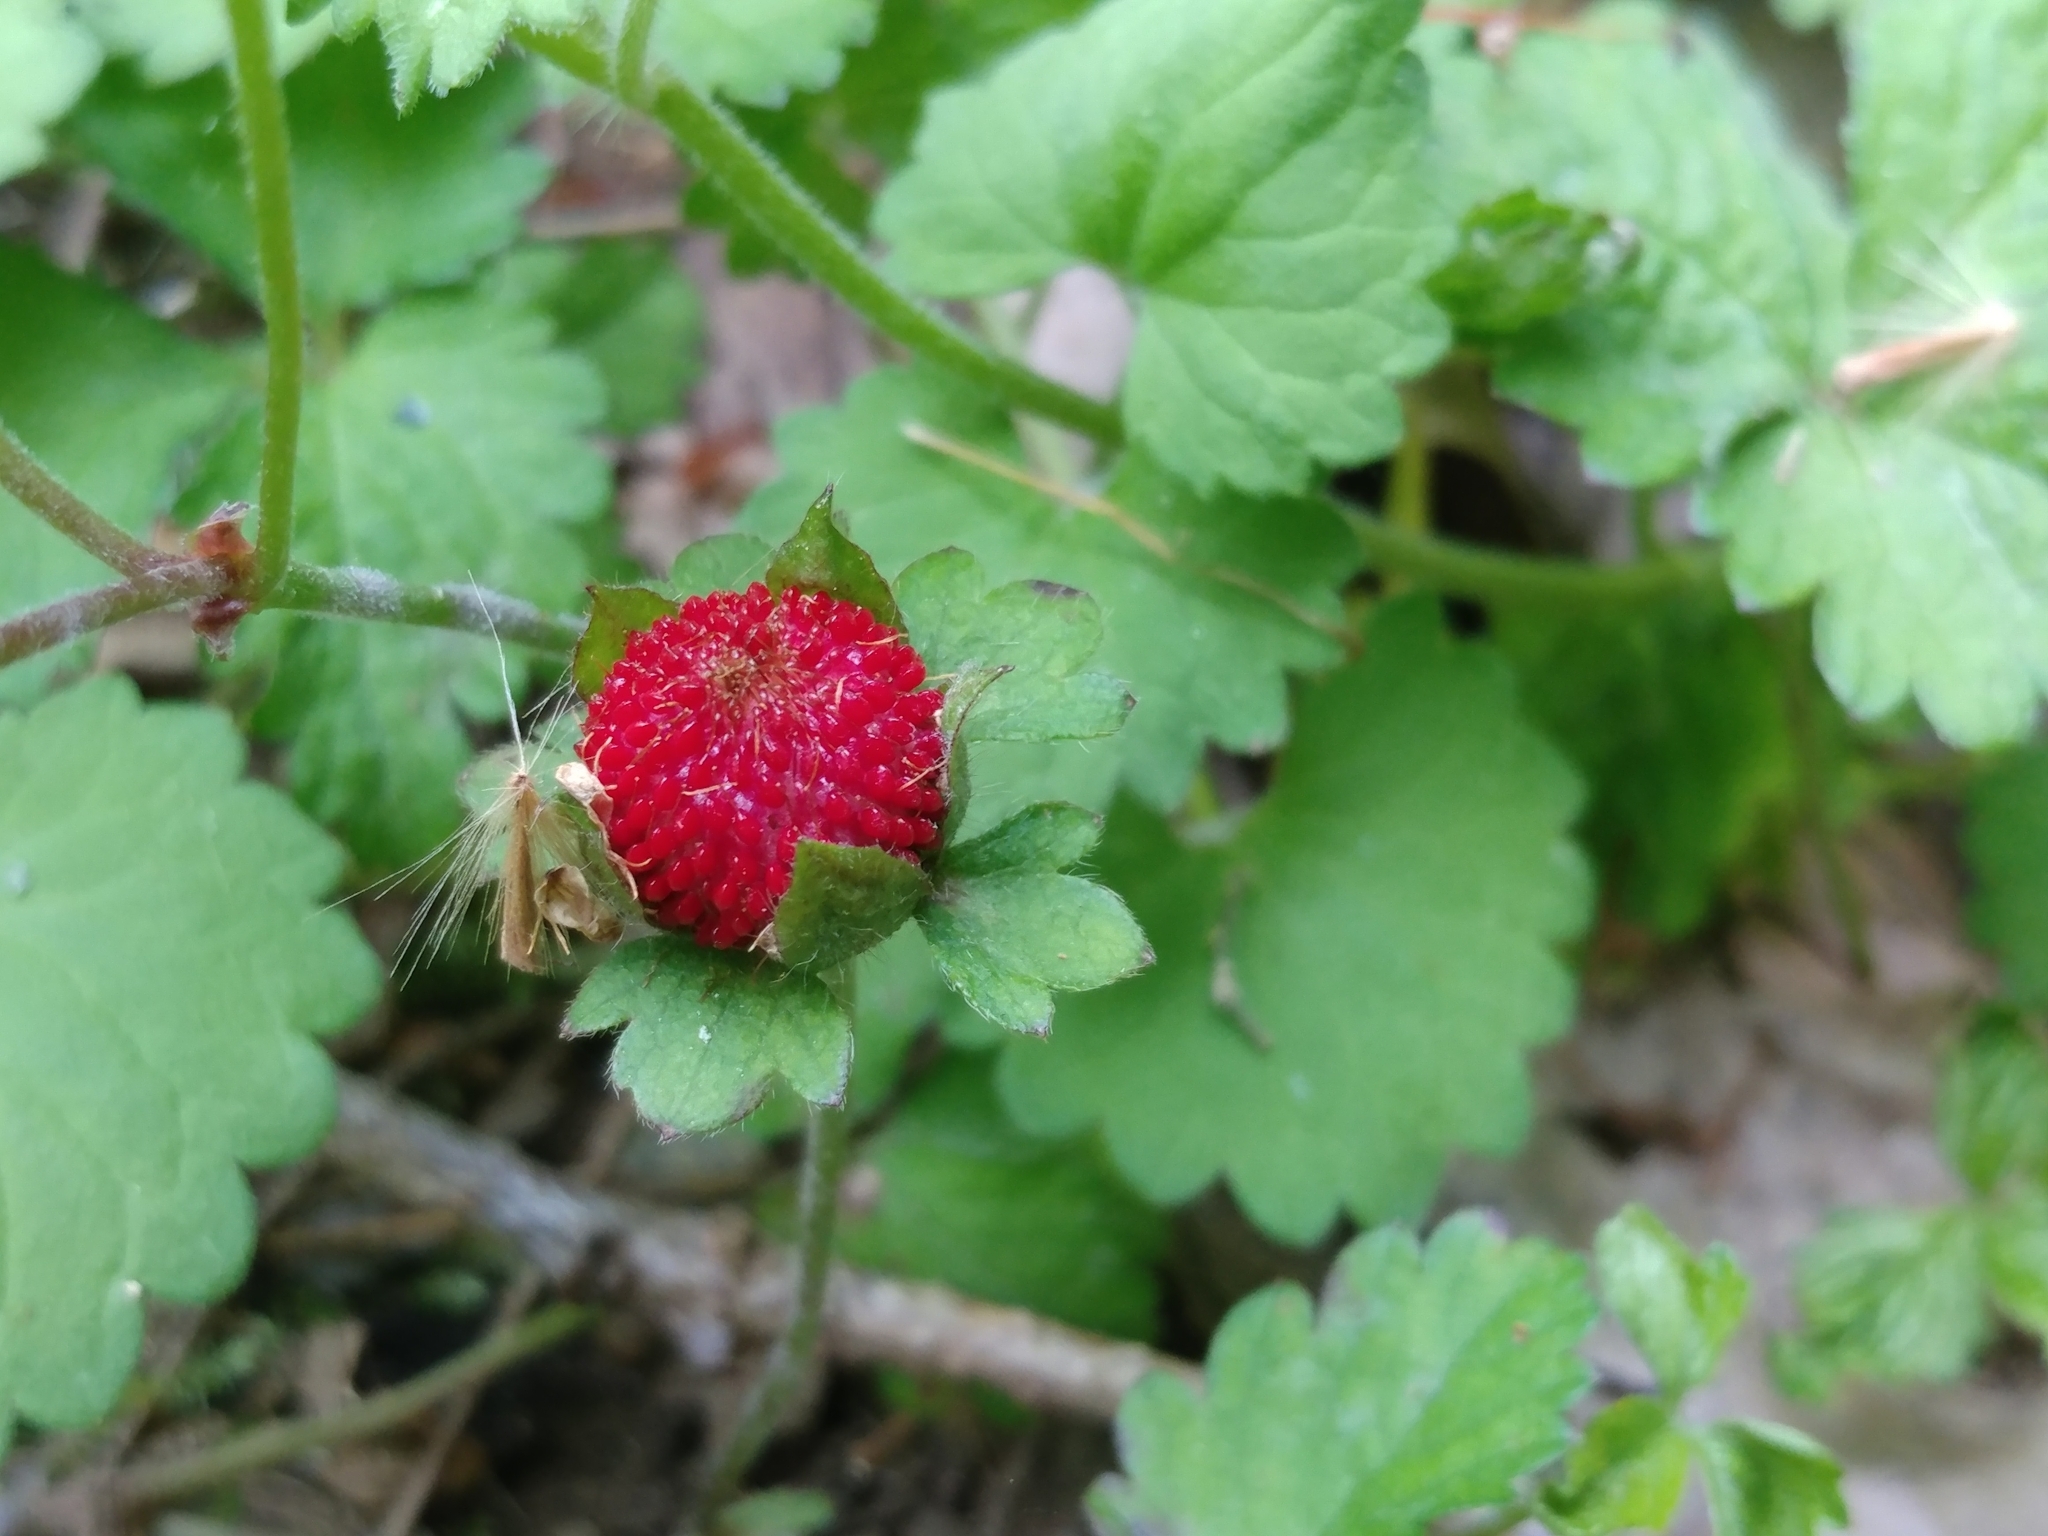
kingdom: Plantae
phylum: Tracheophyta
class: Magnoliopsida
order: Rosales
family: Rosaceae
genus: Potentilla
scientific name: Potentilla indica
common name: Yellow-flowered strawberry
